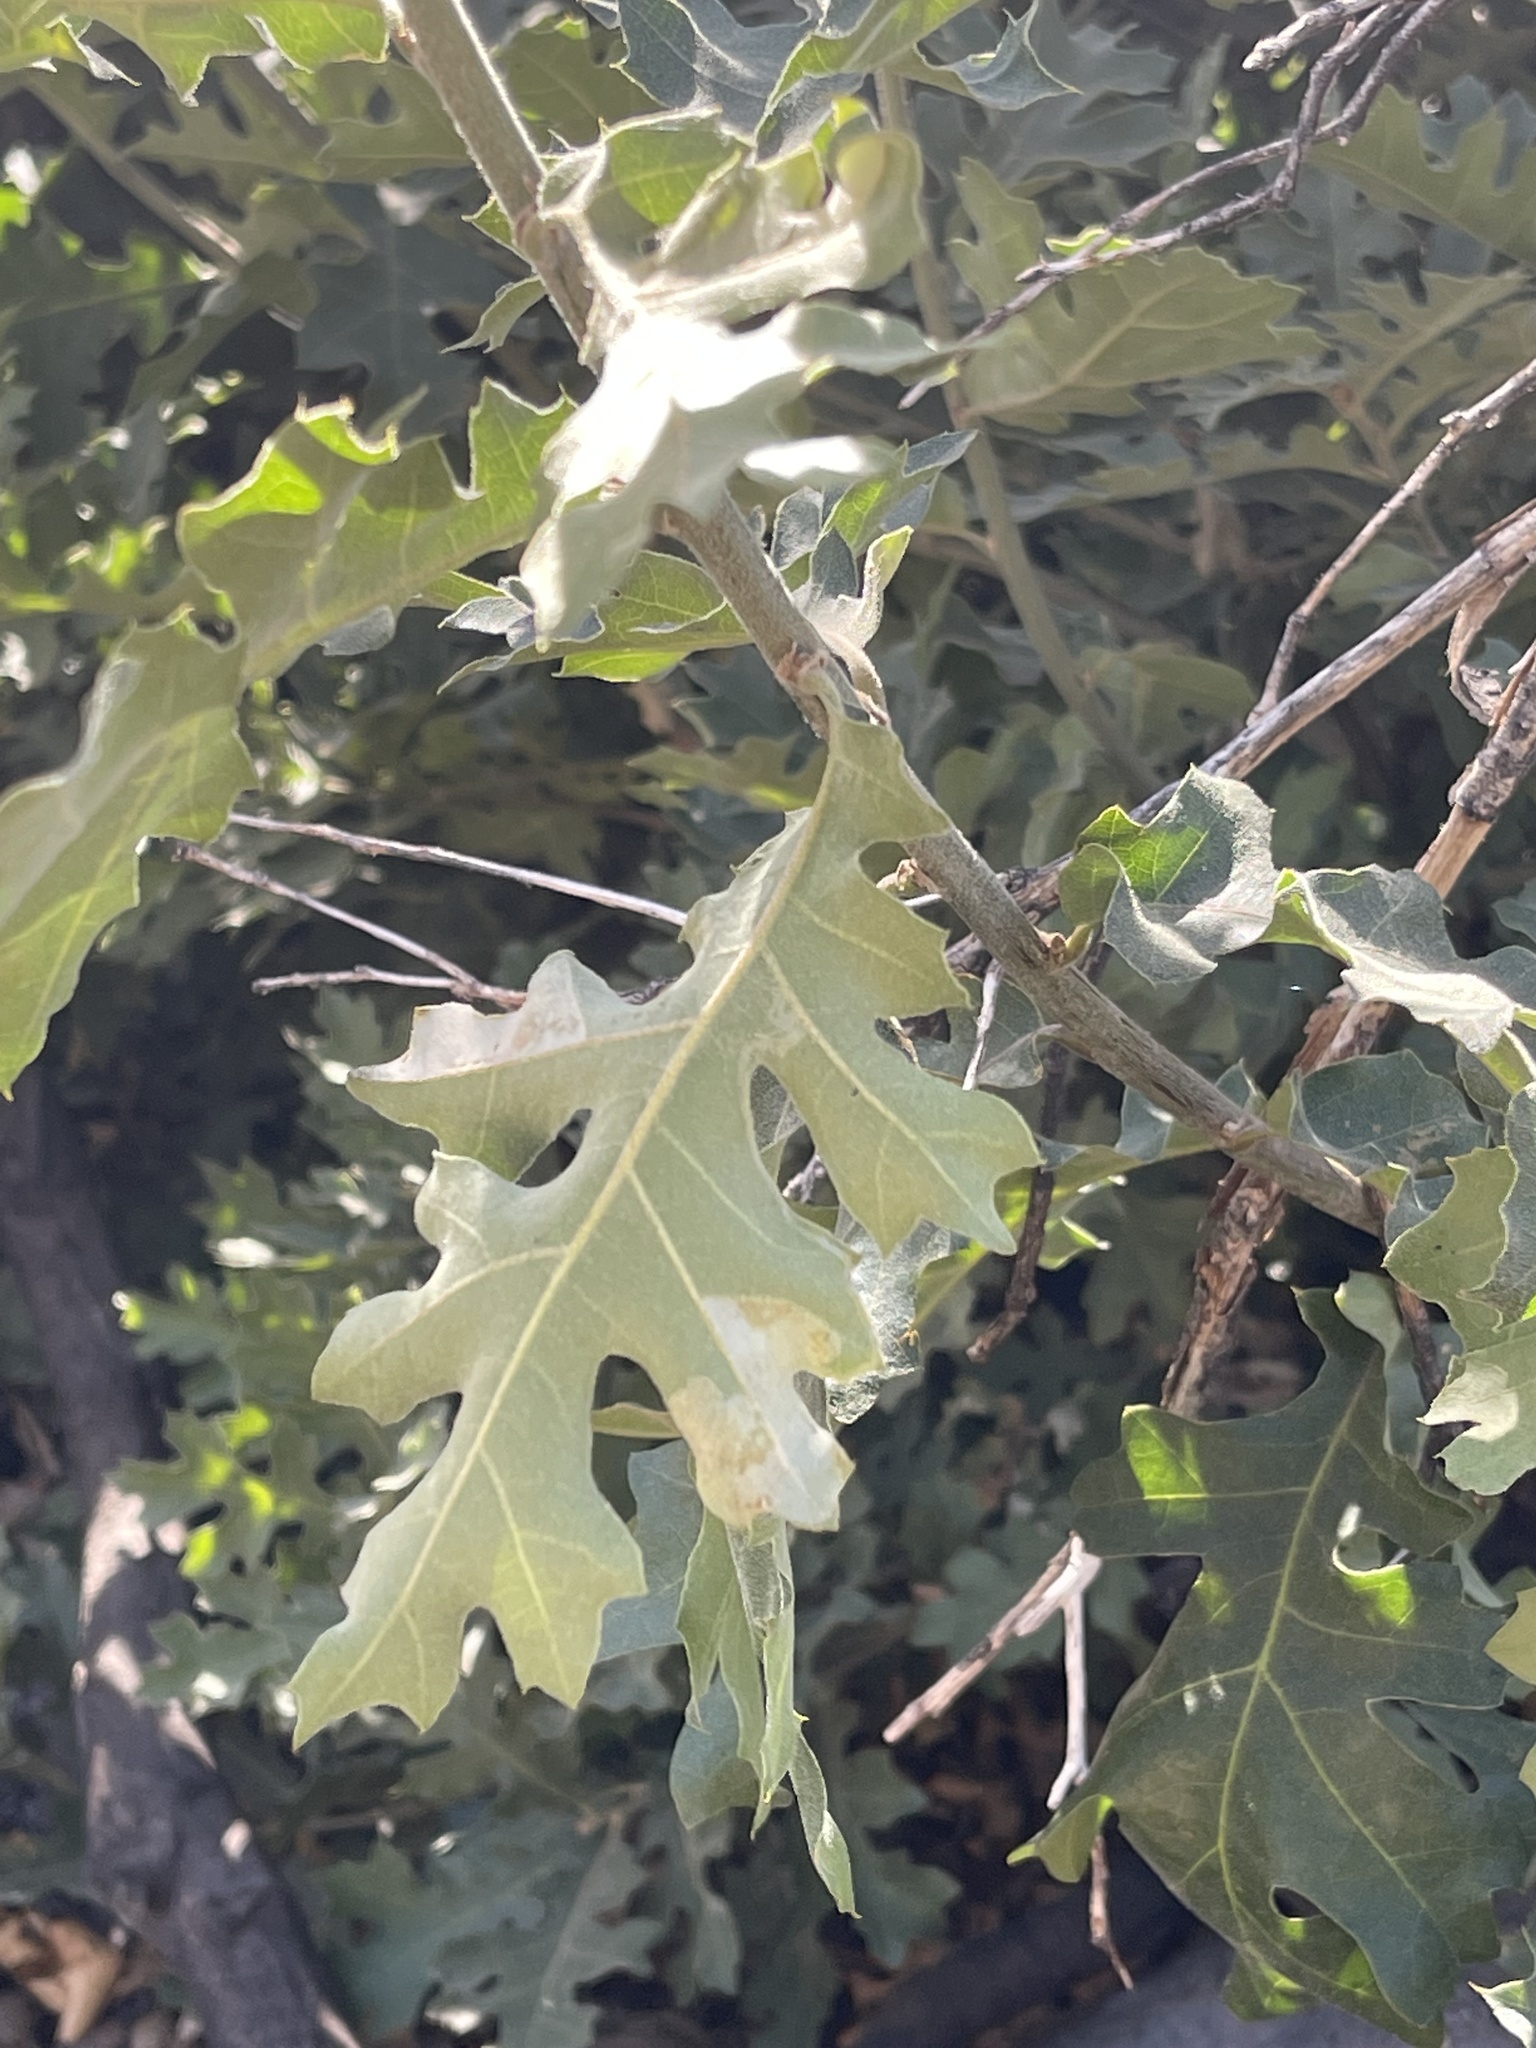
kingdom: Plantae
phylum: Tracheophyta
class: Magnoliopsida
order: Fagales
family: Fagaceae
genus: Quercus
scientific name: Quercus kelloggii
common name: California black oak
